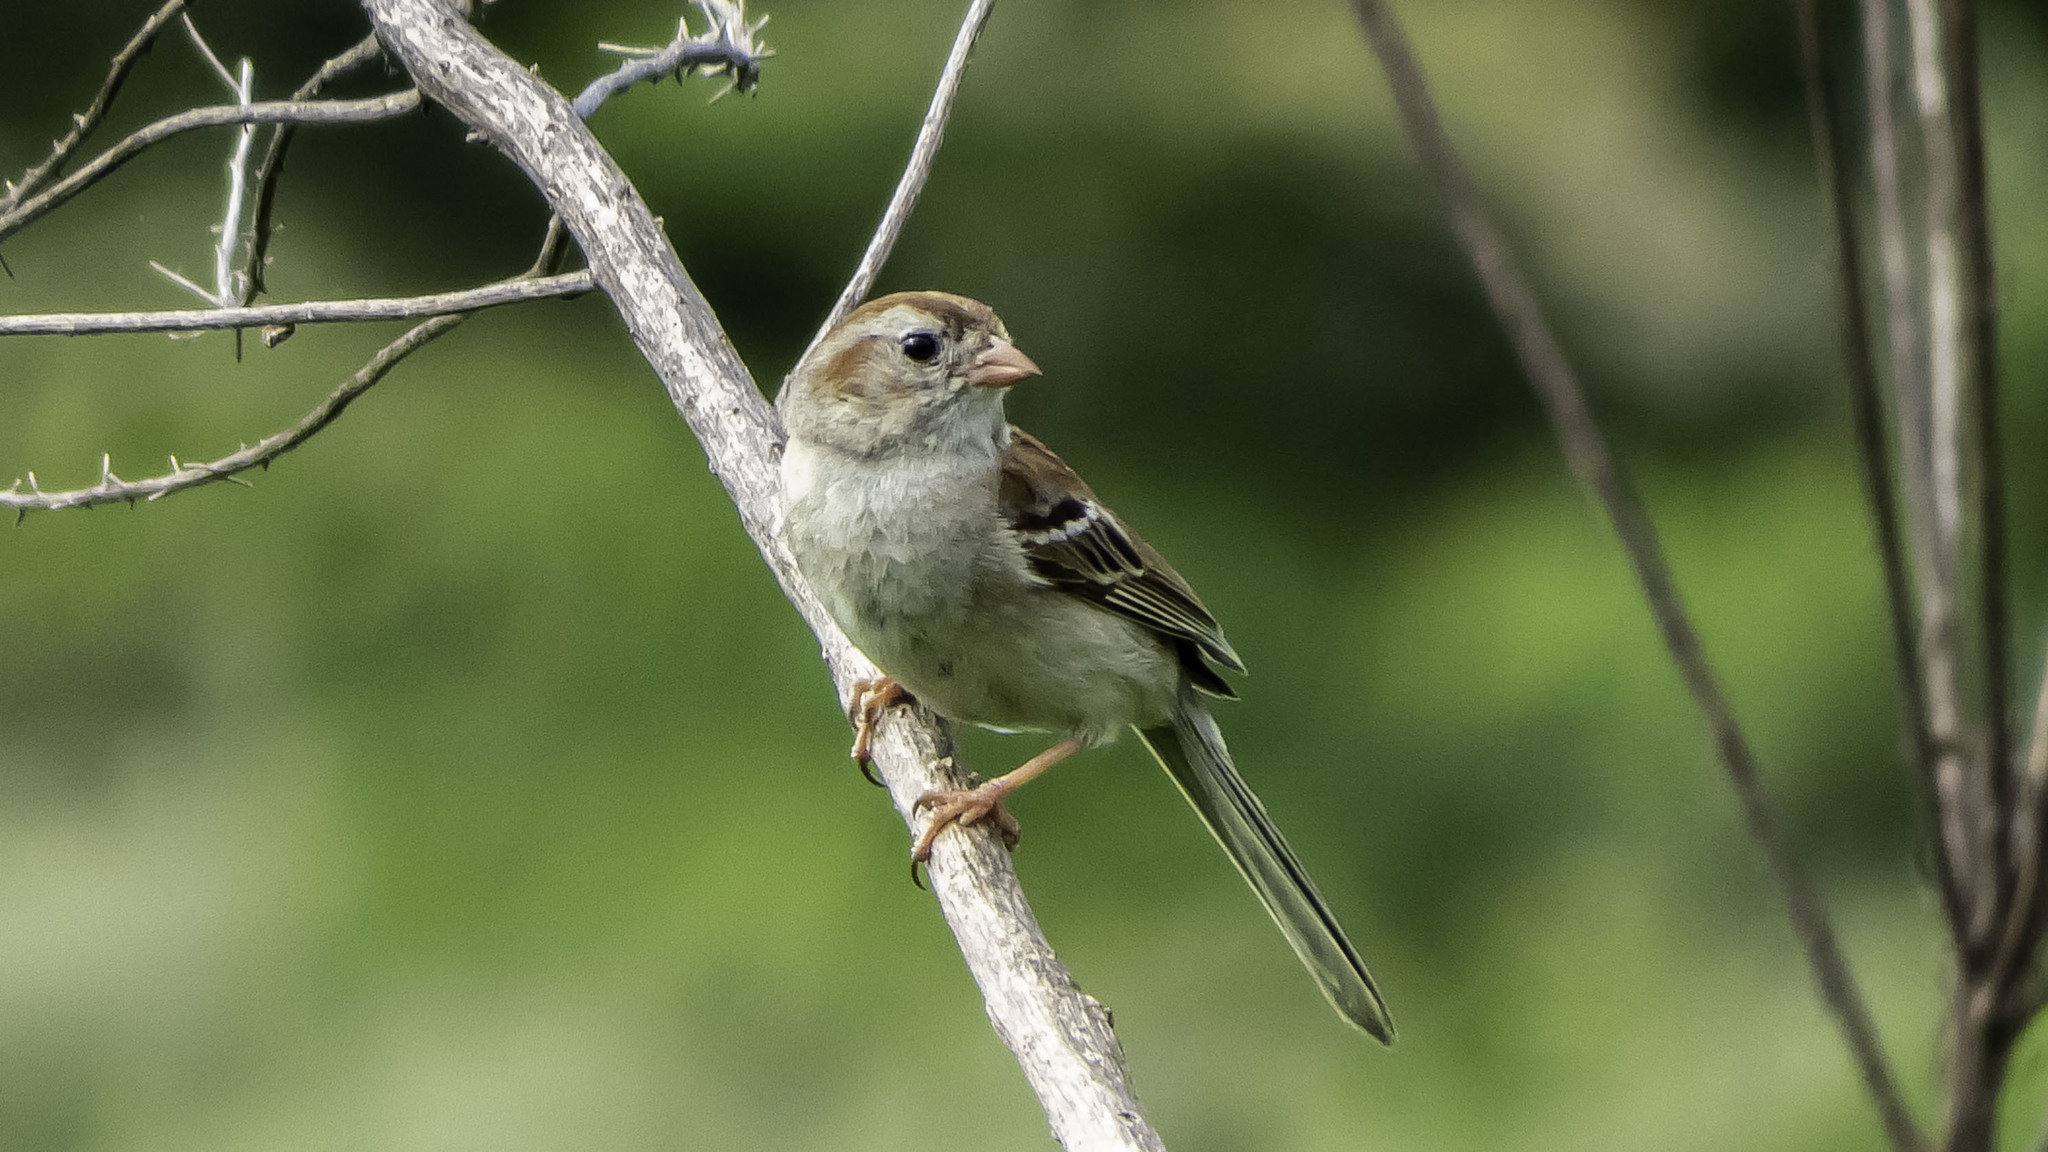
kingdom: Animalia
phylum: Chordata
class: Aves
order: Passeriformes
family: Passerellidae
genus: Spizella
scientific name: Spizella pusilla
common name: Field sparrow
